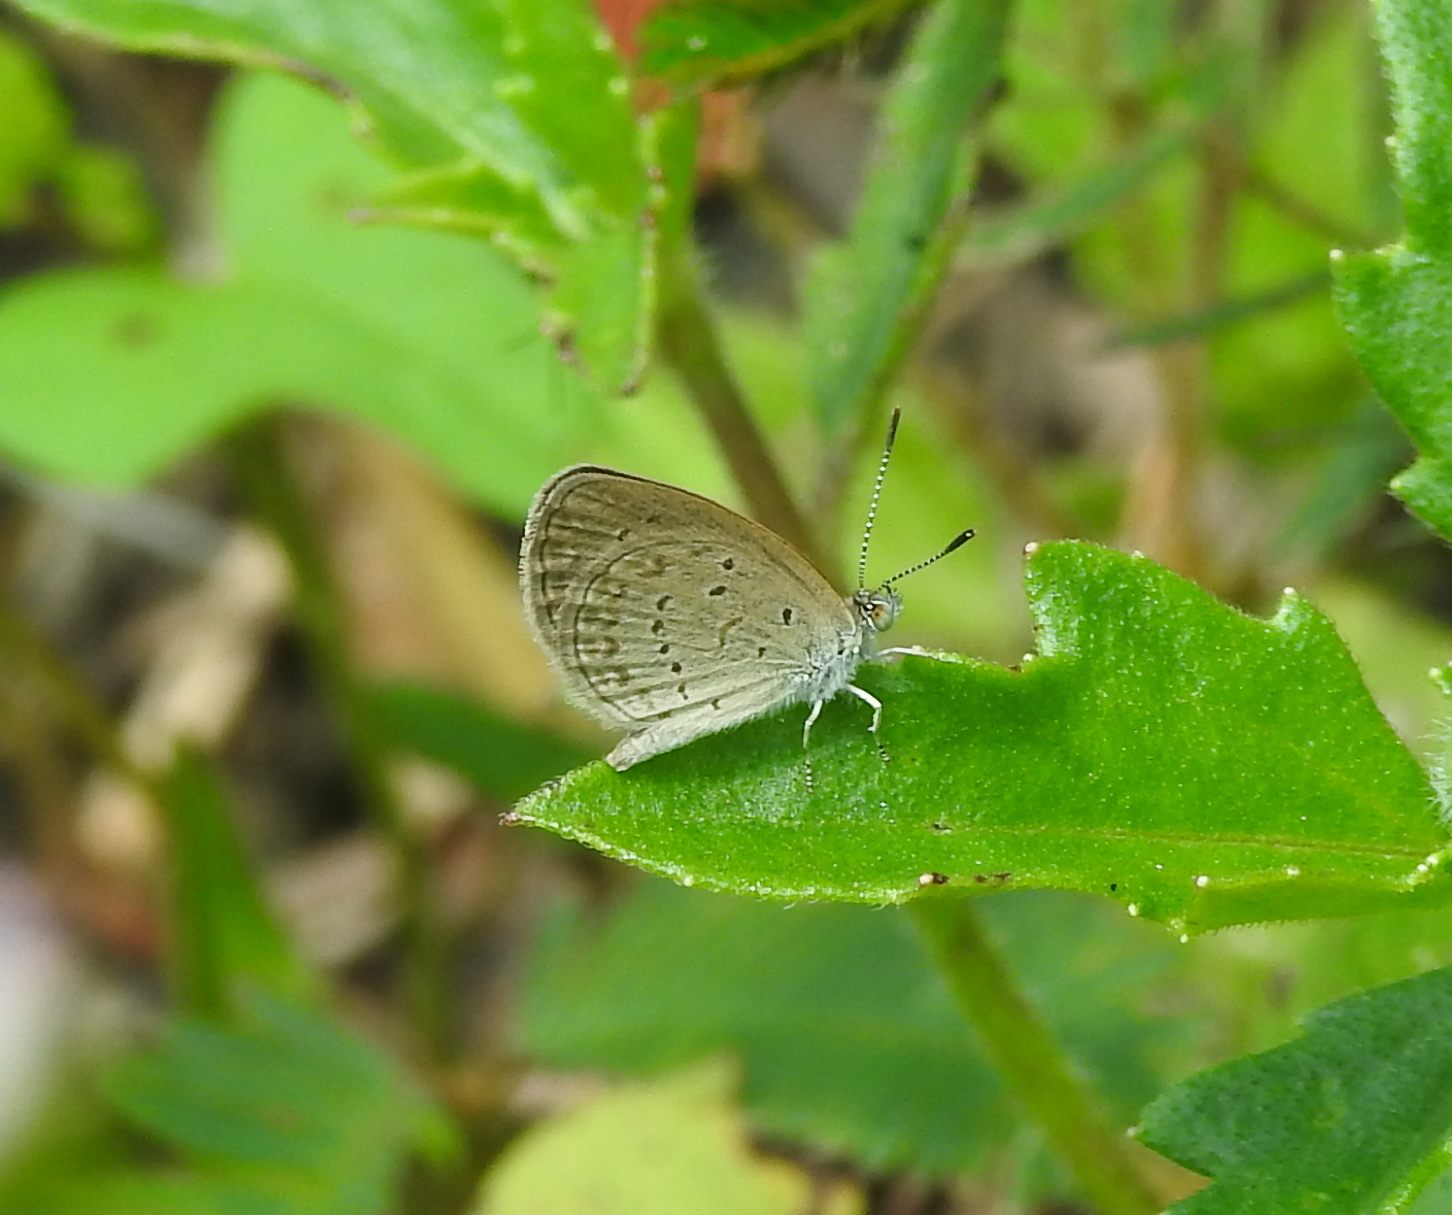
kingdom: Animalia
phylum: Arthropoda
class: Insecta
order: Lepidoptera
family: Lycaenidae
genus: Zizina
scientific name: Zizina otis
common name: Lesser grass blue
